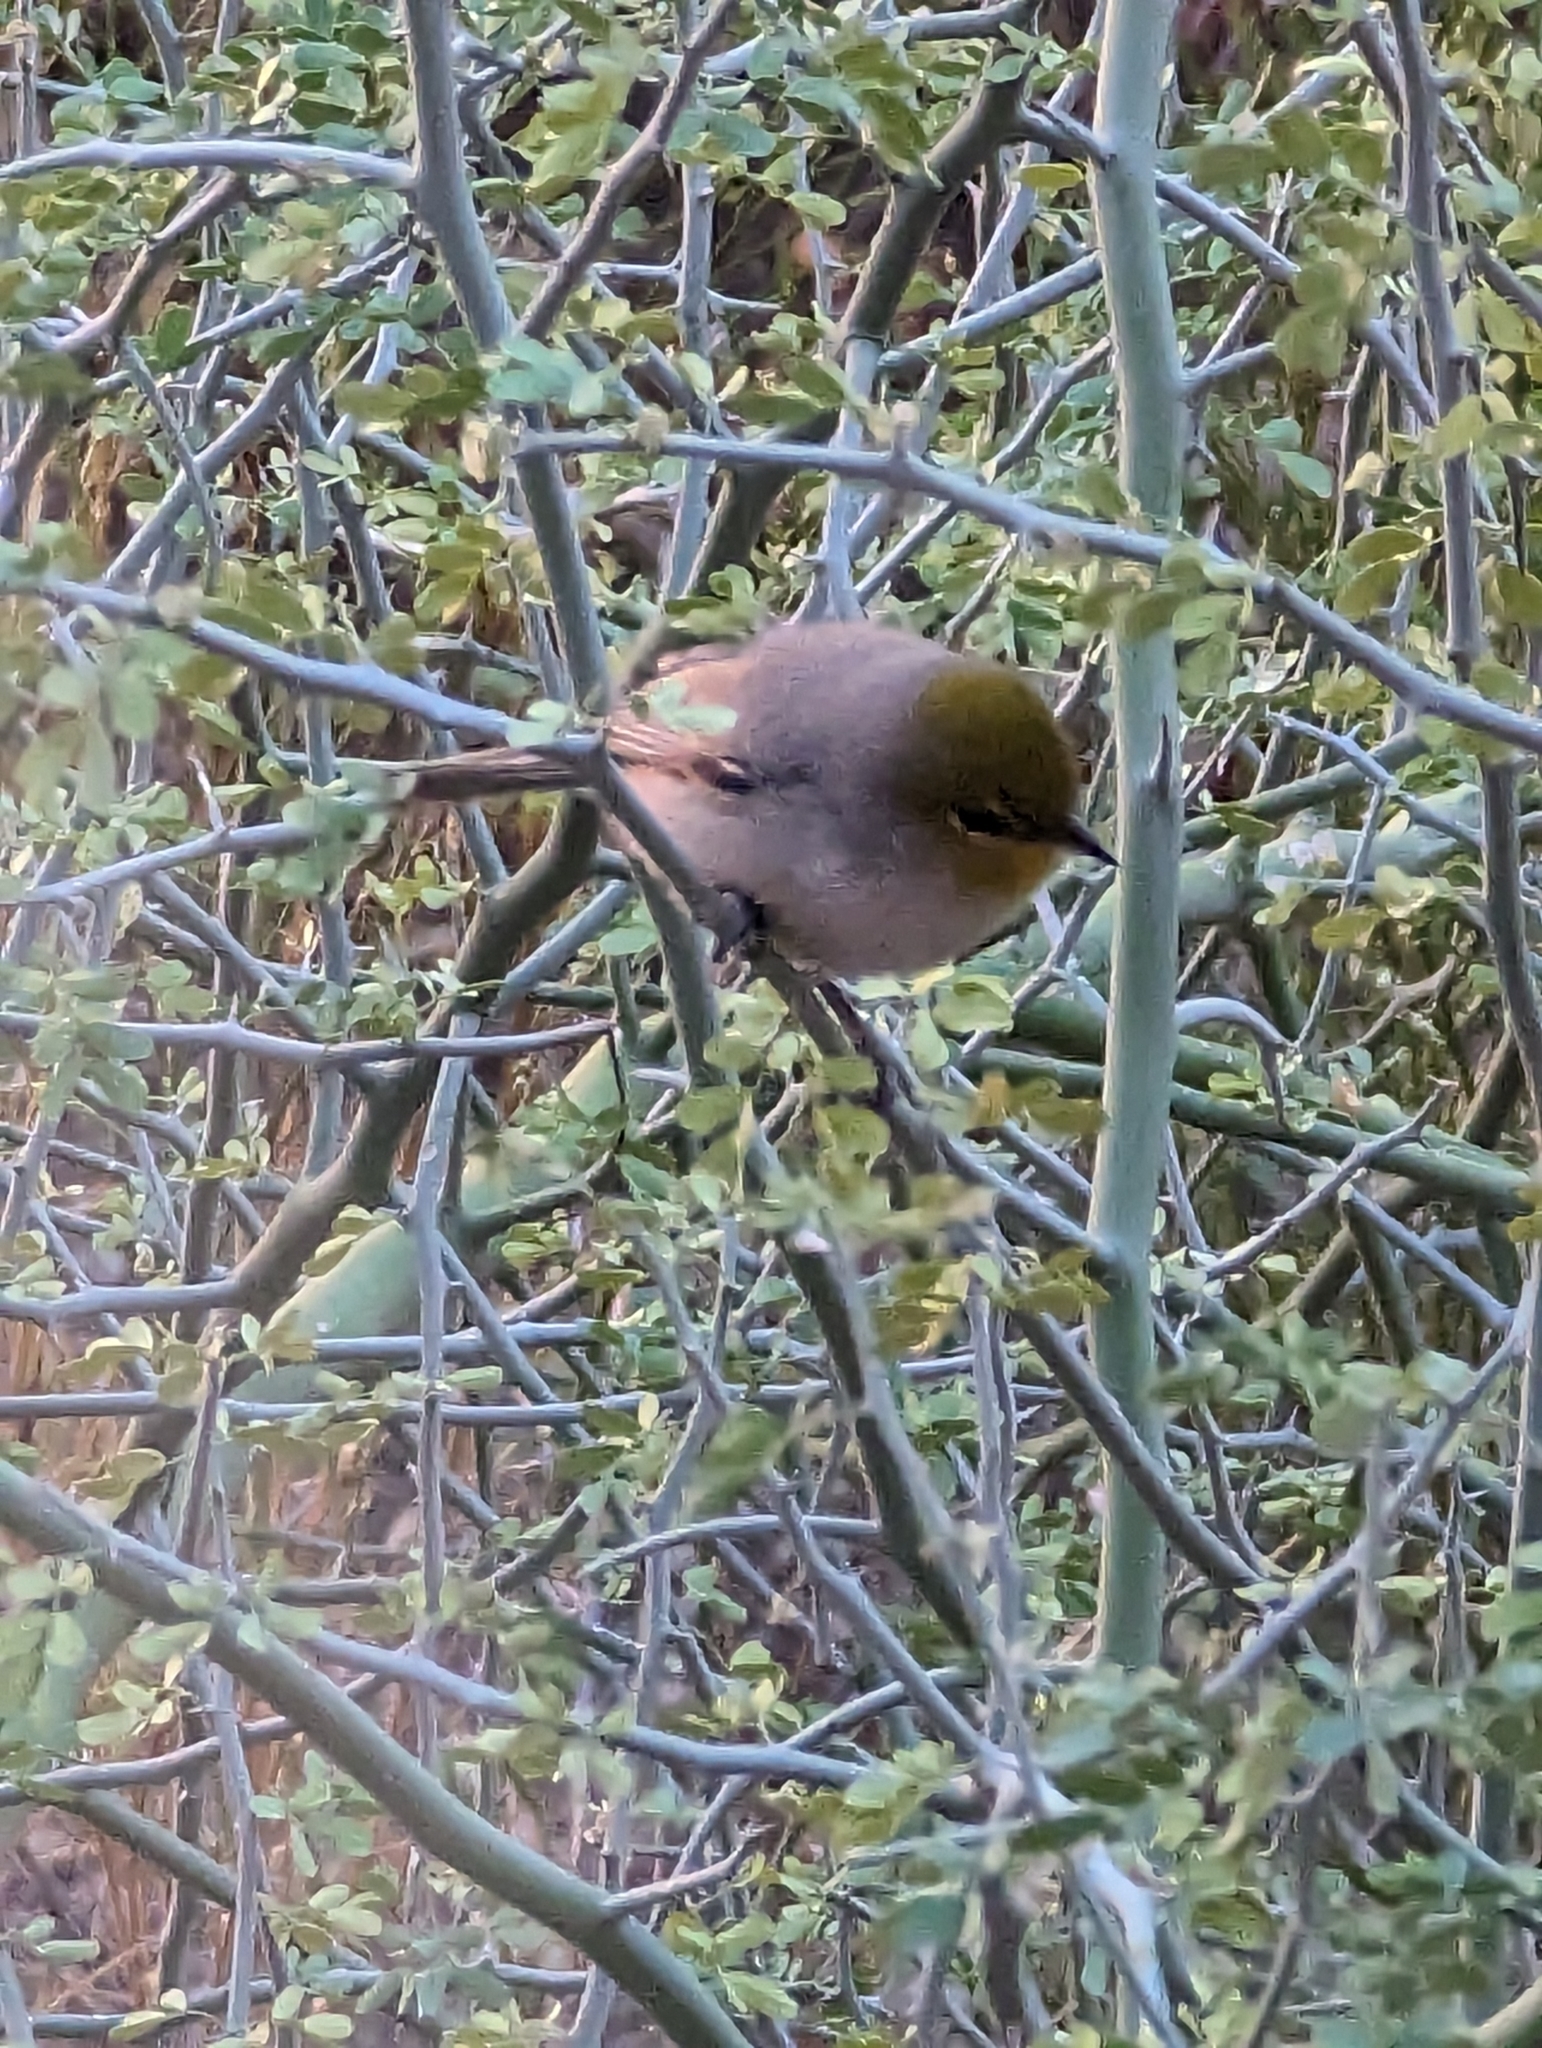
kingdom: Animalia
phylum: Chordata
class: Aves
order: Passeriformes
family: Remizidae
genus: Auriparus
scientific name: Auriparus flaviceps
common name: Verdin
